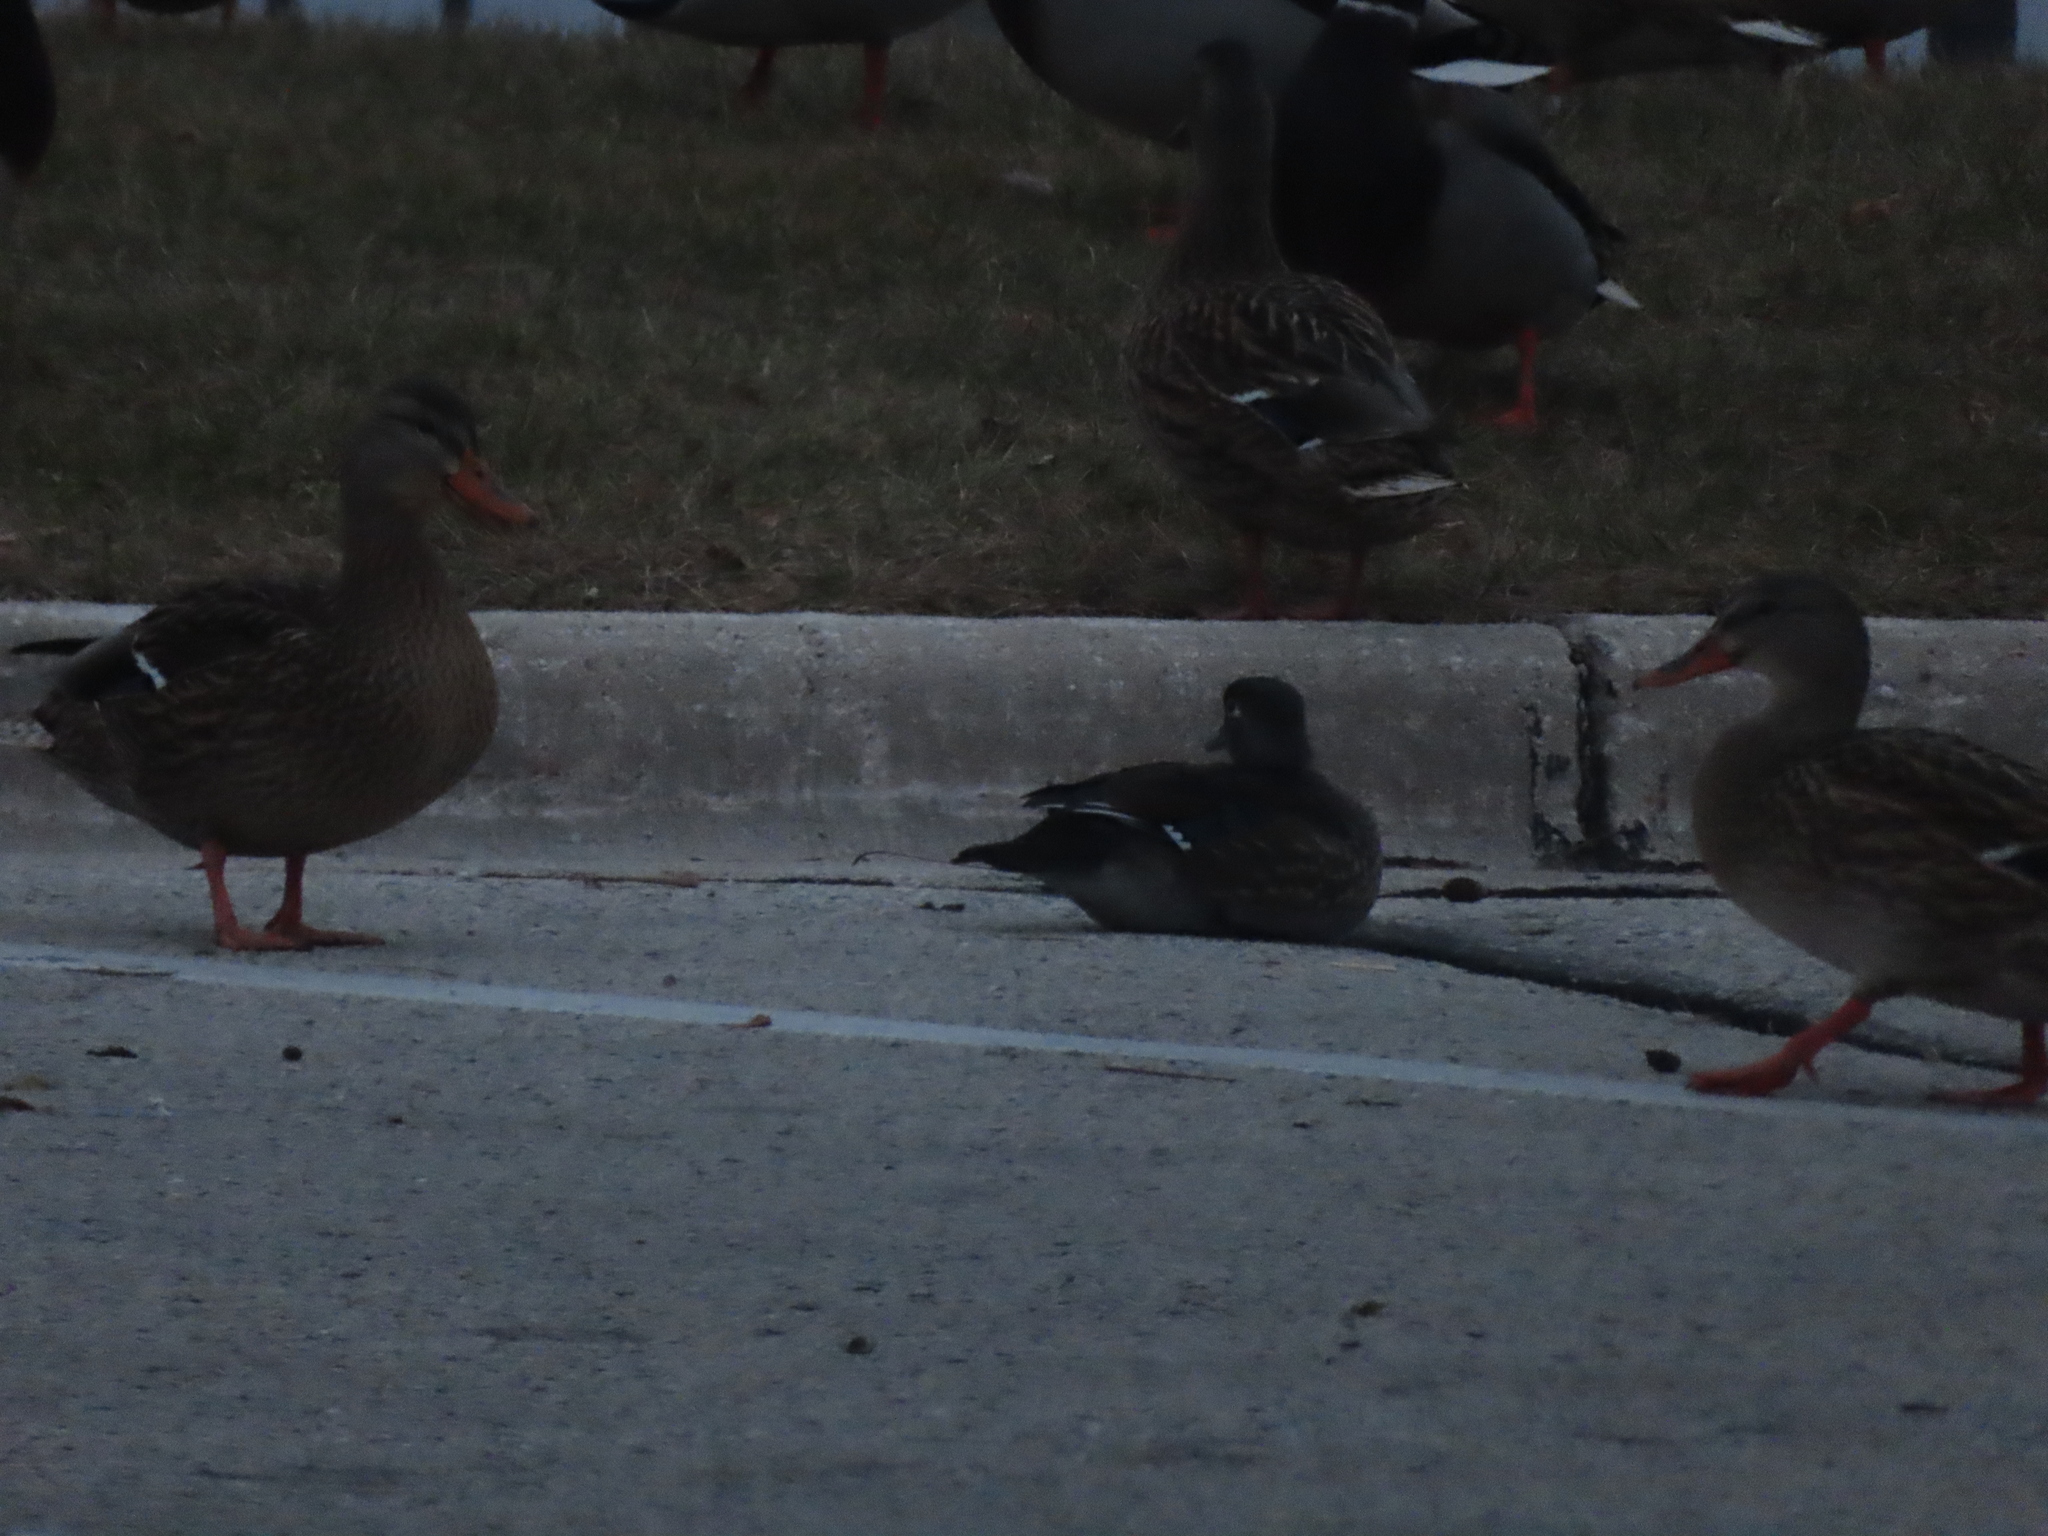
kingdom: Animalia
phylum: Chordata
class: Aves
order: Anseriformes
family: Anatidae
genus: Aix
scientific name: Aix sponsa
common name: Wood duck
